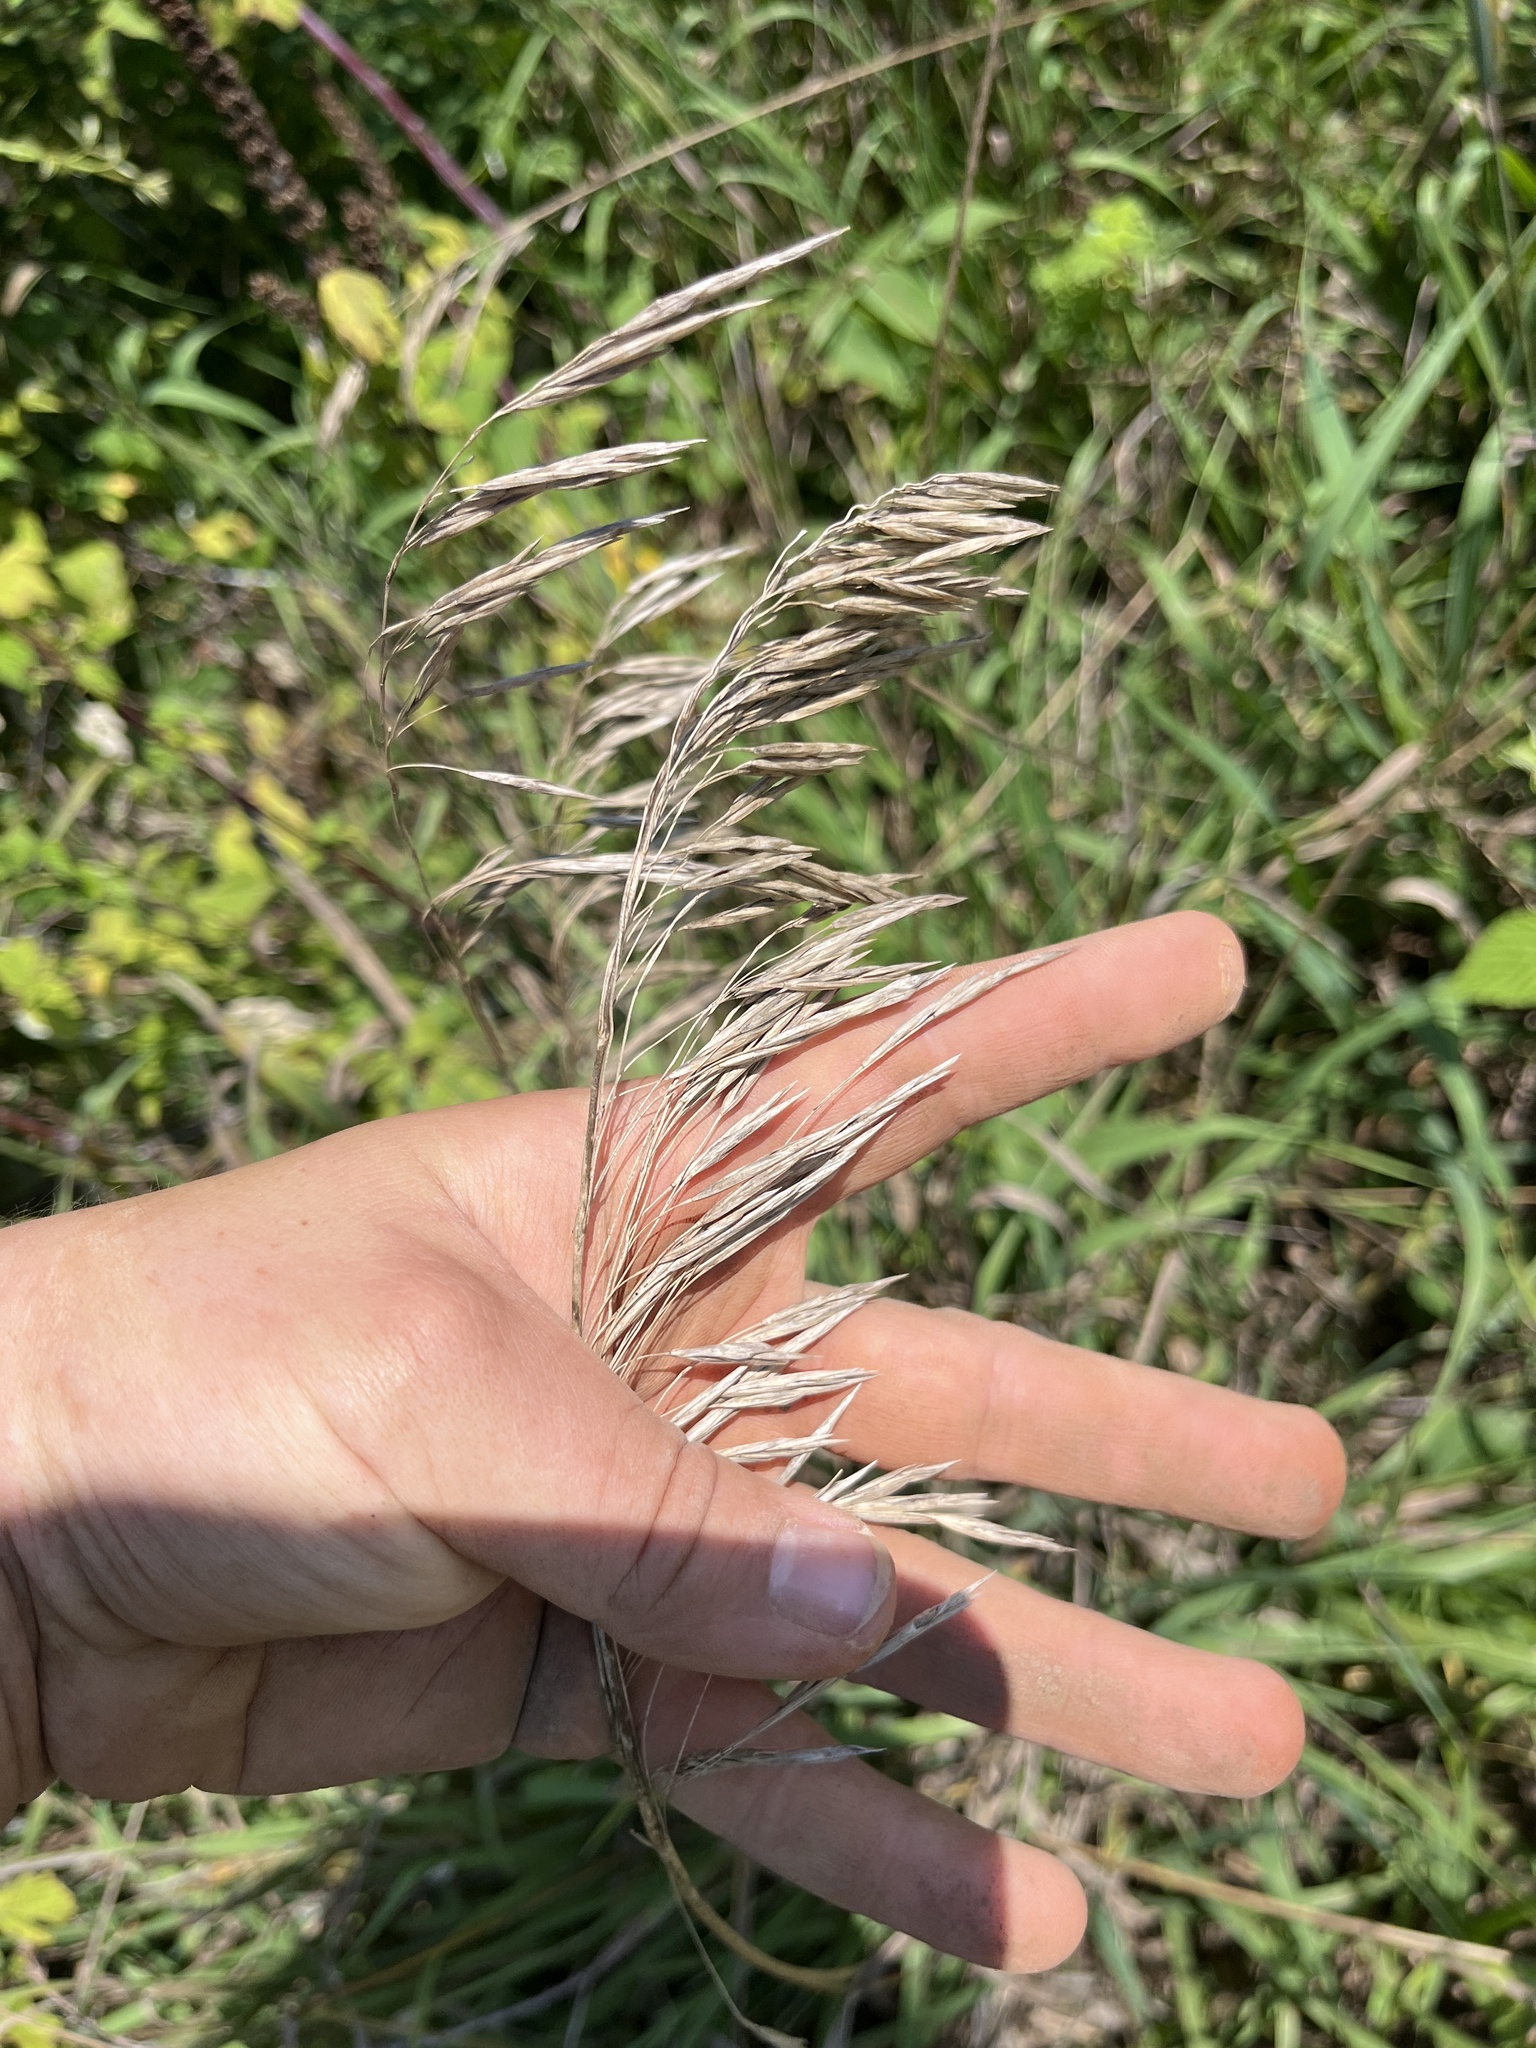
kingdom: Plantae
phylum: Tracheophyta
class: Liliopsida
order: Poales
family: Poaceae
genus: Bromus
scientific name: Bromus inermis
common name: Smooth brome
